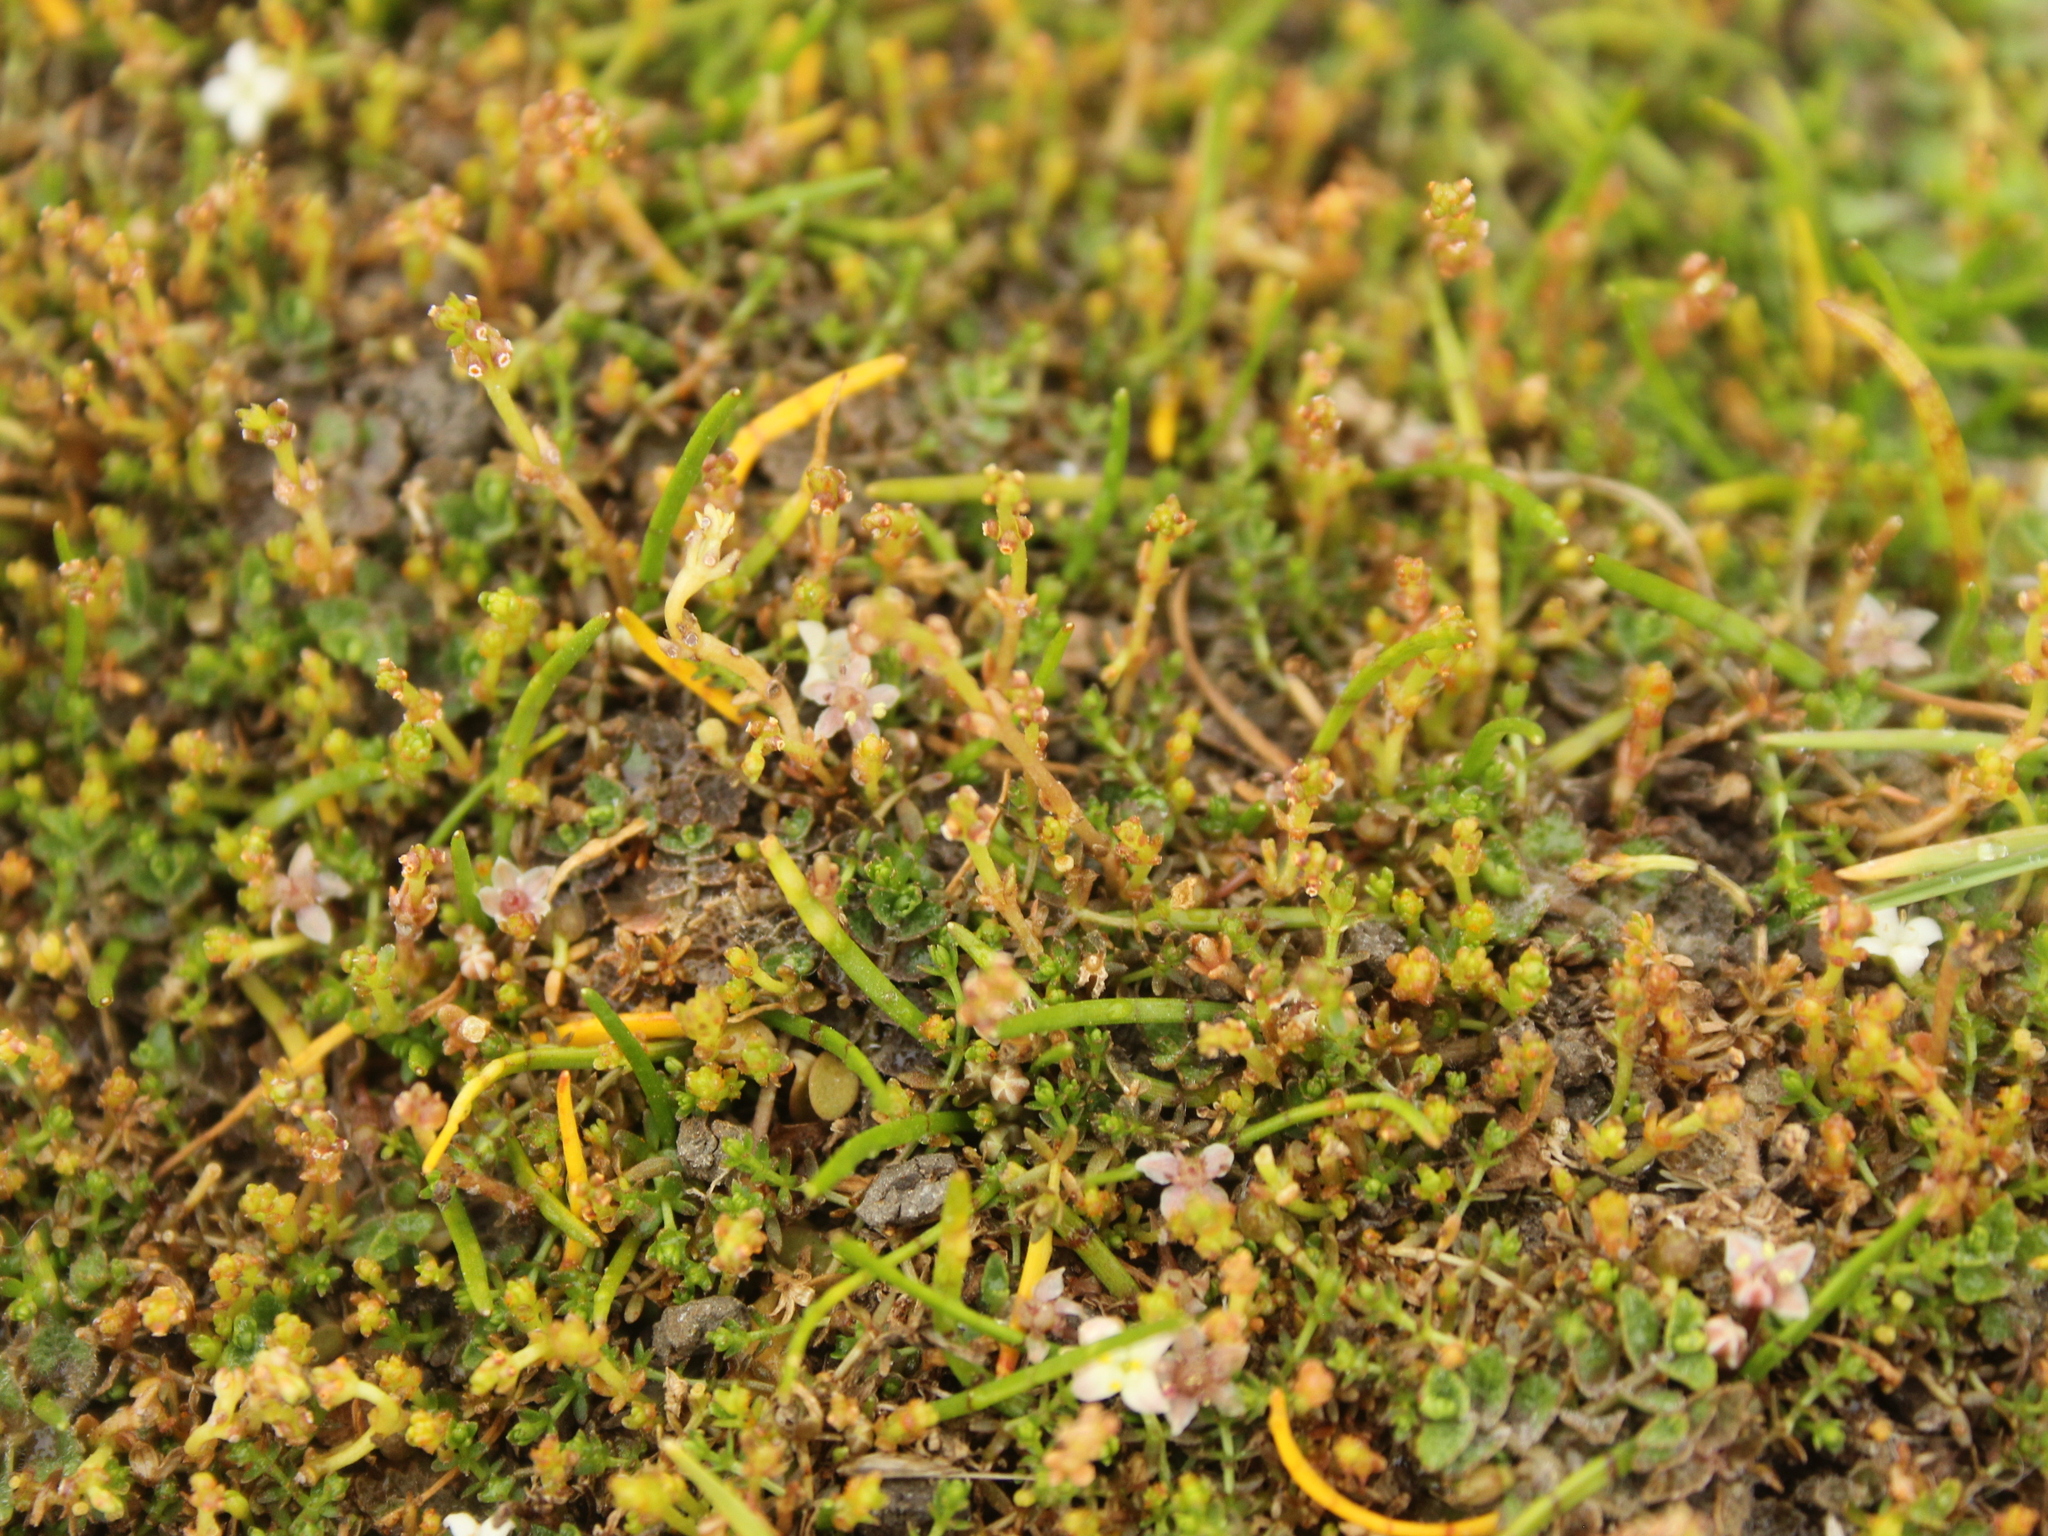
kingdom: Fungi
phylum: Basidiomycota
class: Pucciniomycetes
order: Pucciniales
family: Pucciniaceae
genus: Puccinia
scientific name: Puccinia punctata
